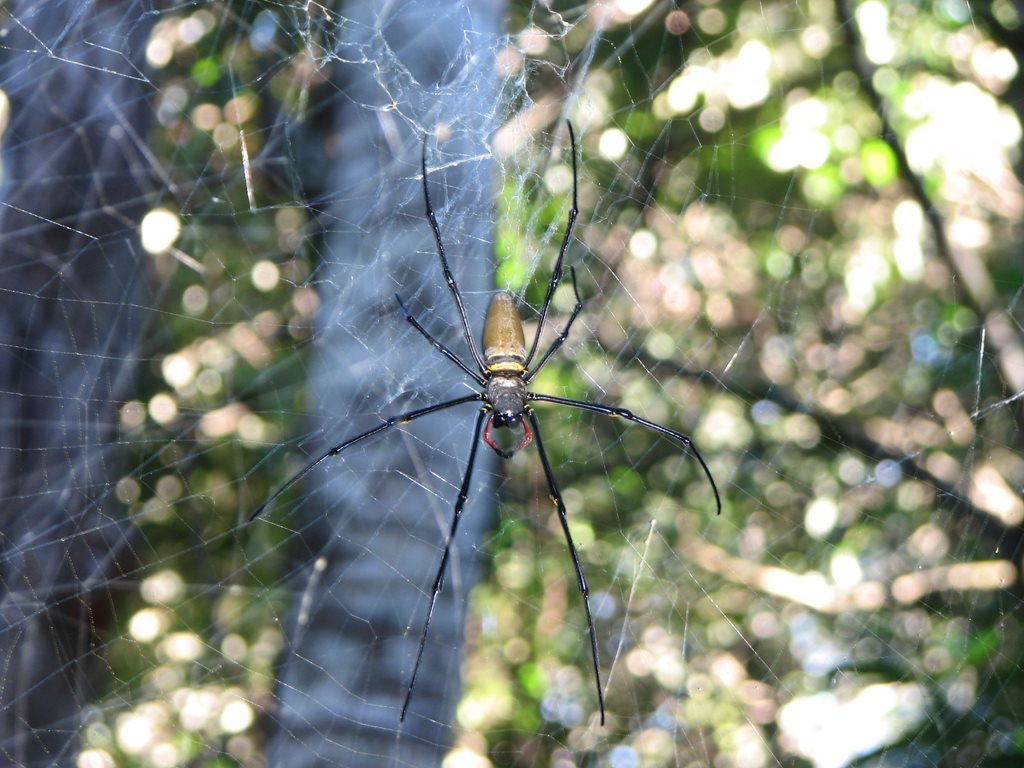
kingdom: Animalia
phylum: Arthropoda
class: Arachnida
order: Araneae
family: Araneidae
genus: Nephila
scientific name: Nephila pilipes
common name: Giant golden orb weaver
